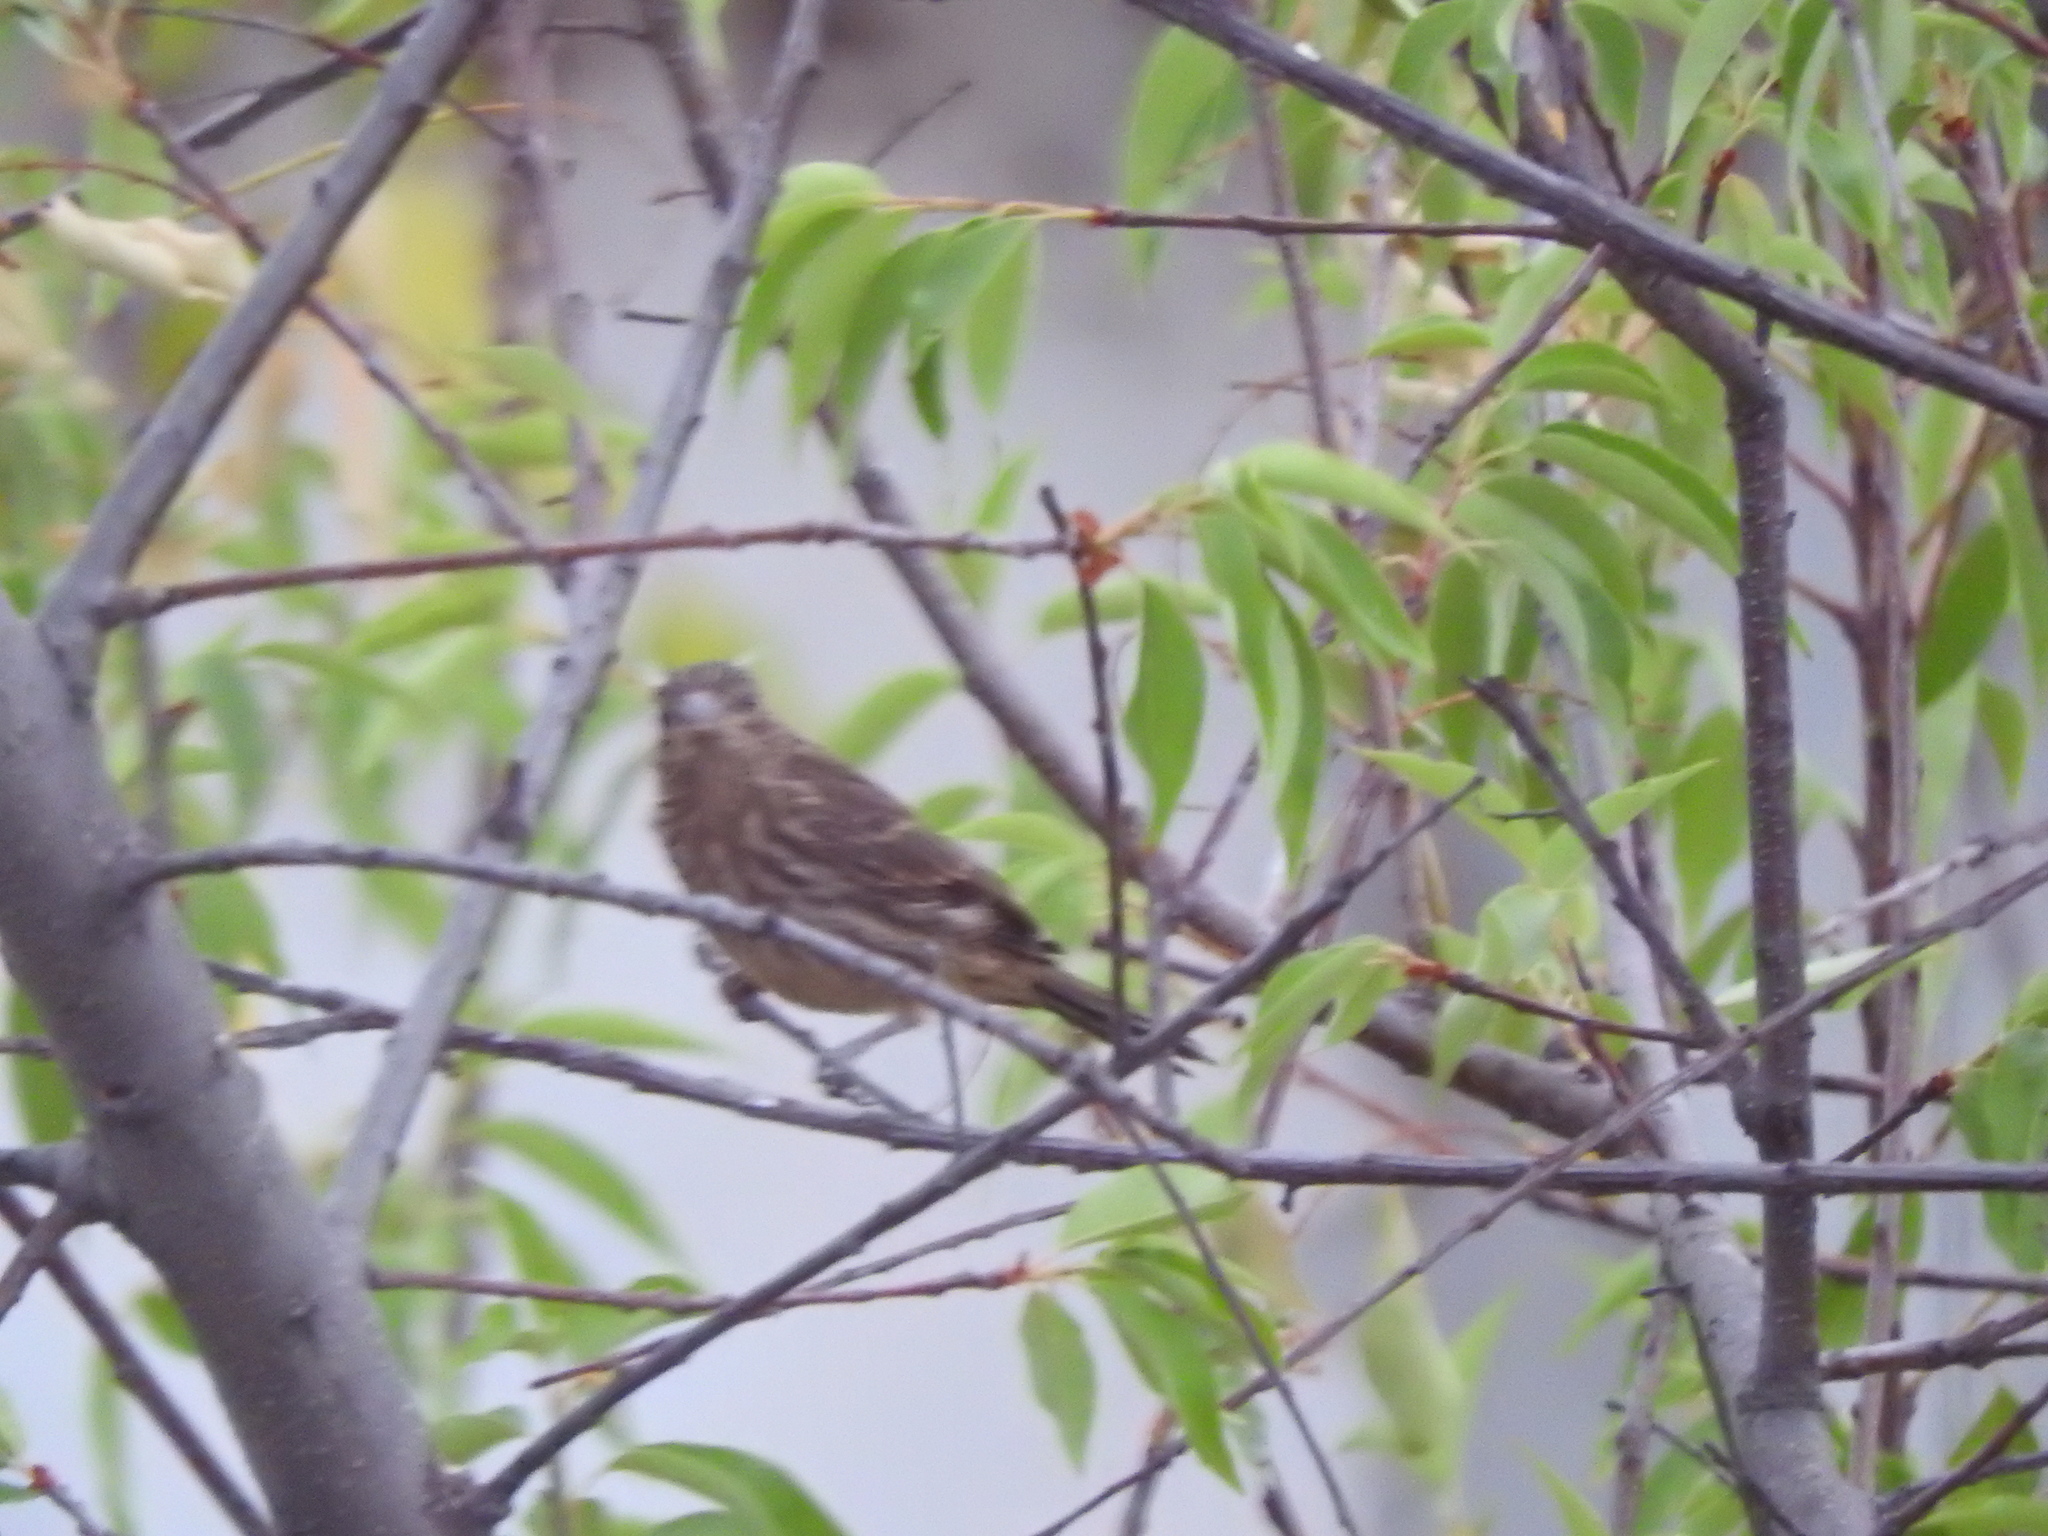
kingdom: Animalia
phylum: Chordata
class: Aves
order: Passeriformes
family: Fringillidae
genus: Haemorhous
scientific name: Haemorhous mexicanus
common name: House finch
